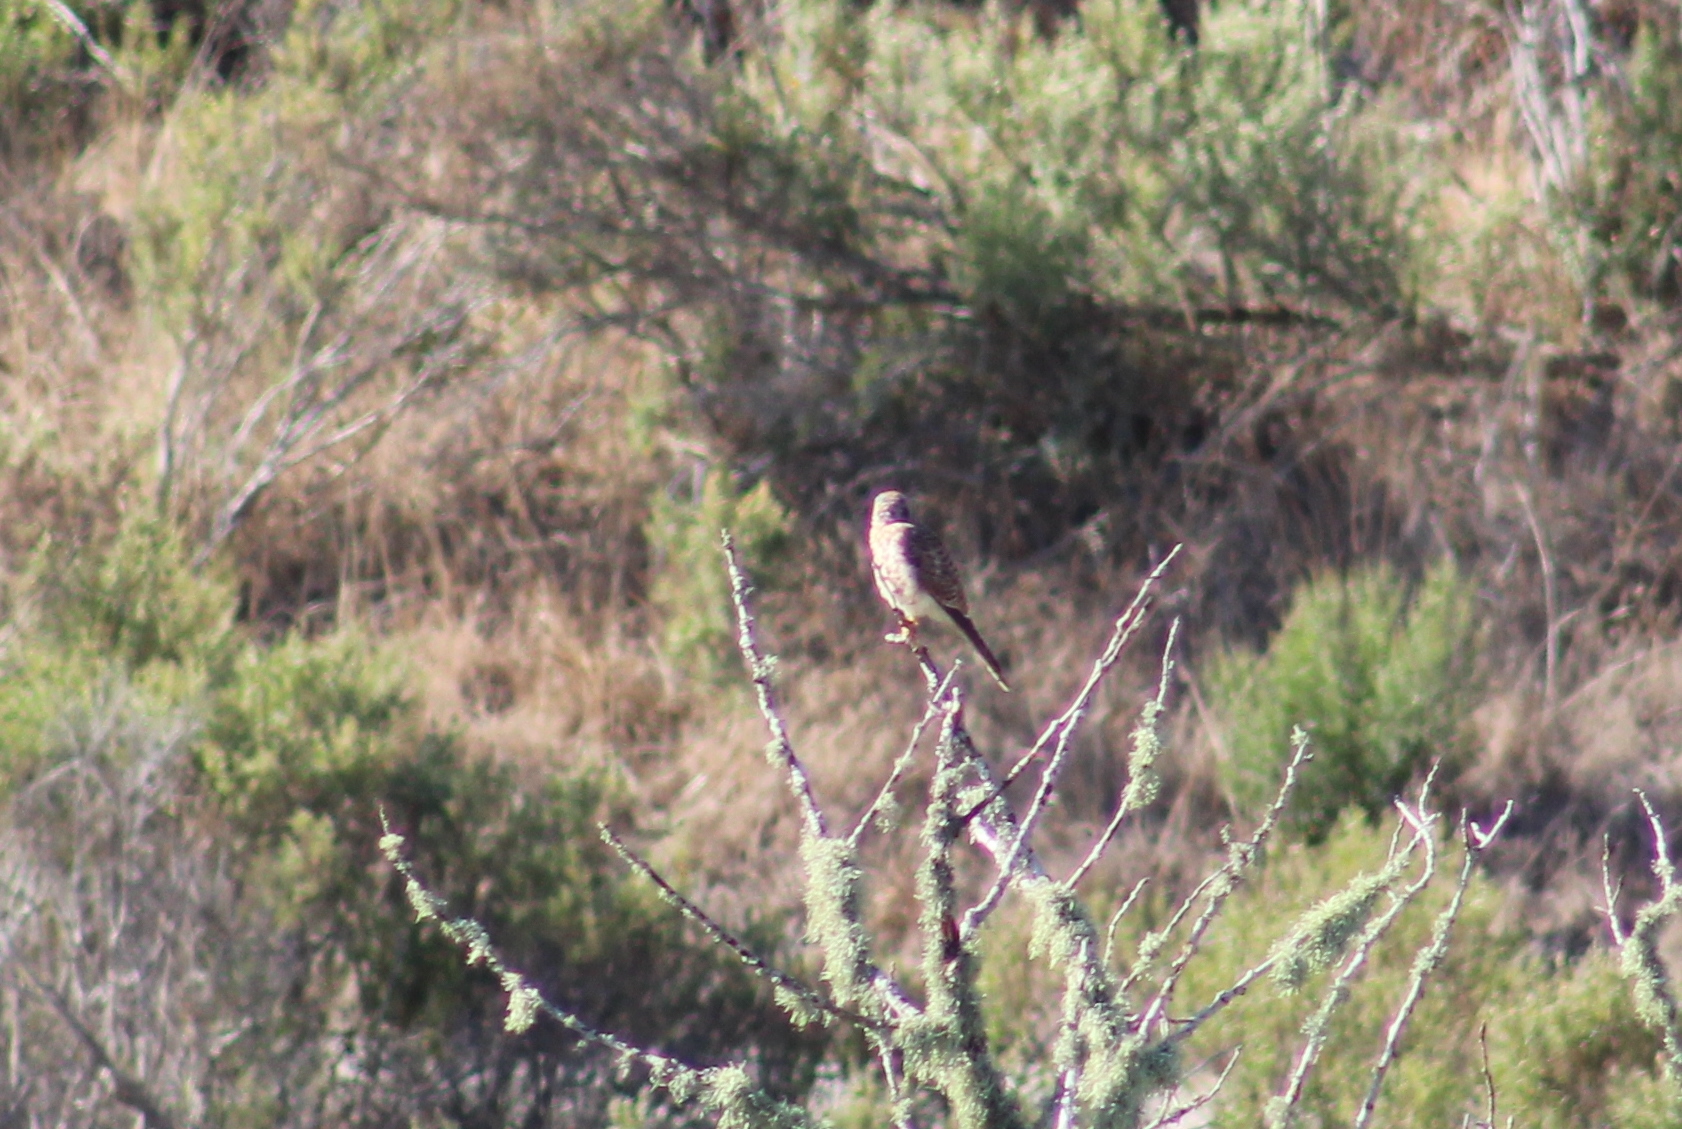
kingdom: Animalia
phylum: Chordata
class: Aves
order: Falconiformes
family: Falconidae
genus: Falco
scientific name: Falco sparverius
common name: American kestrel
